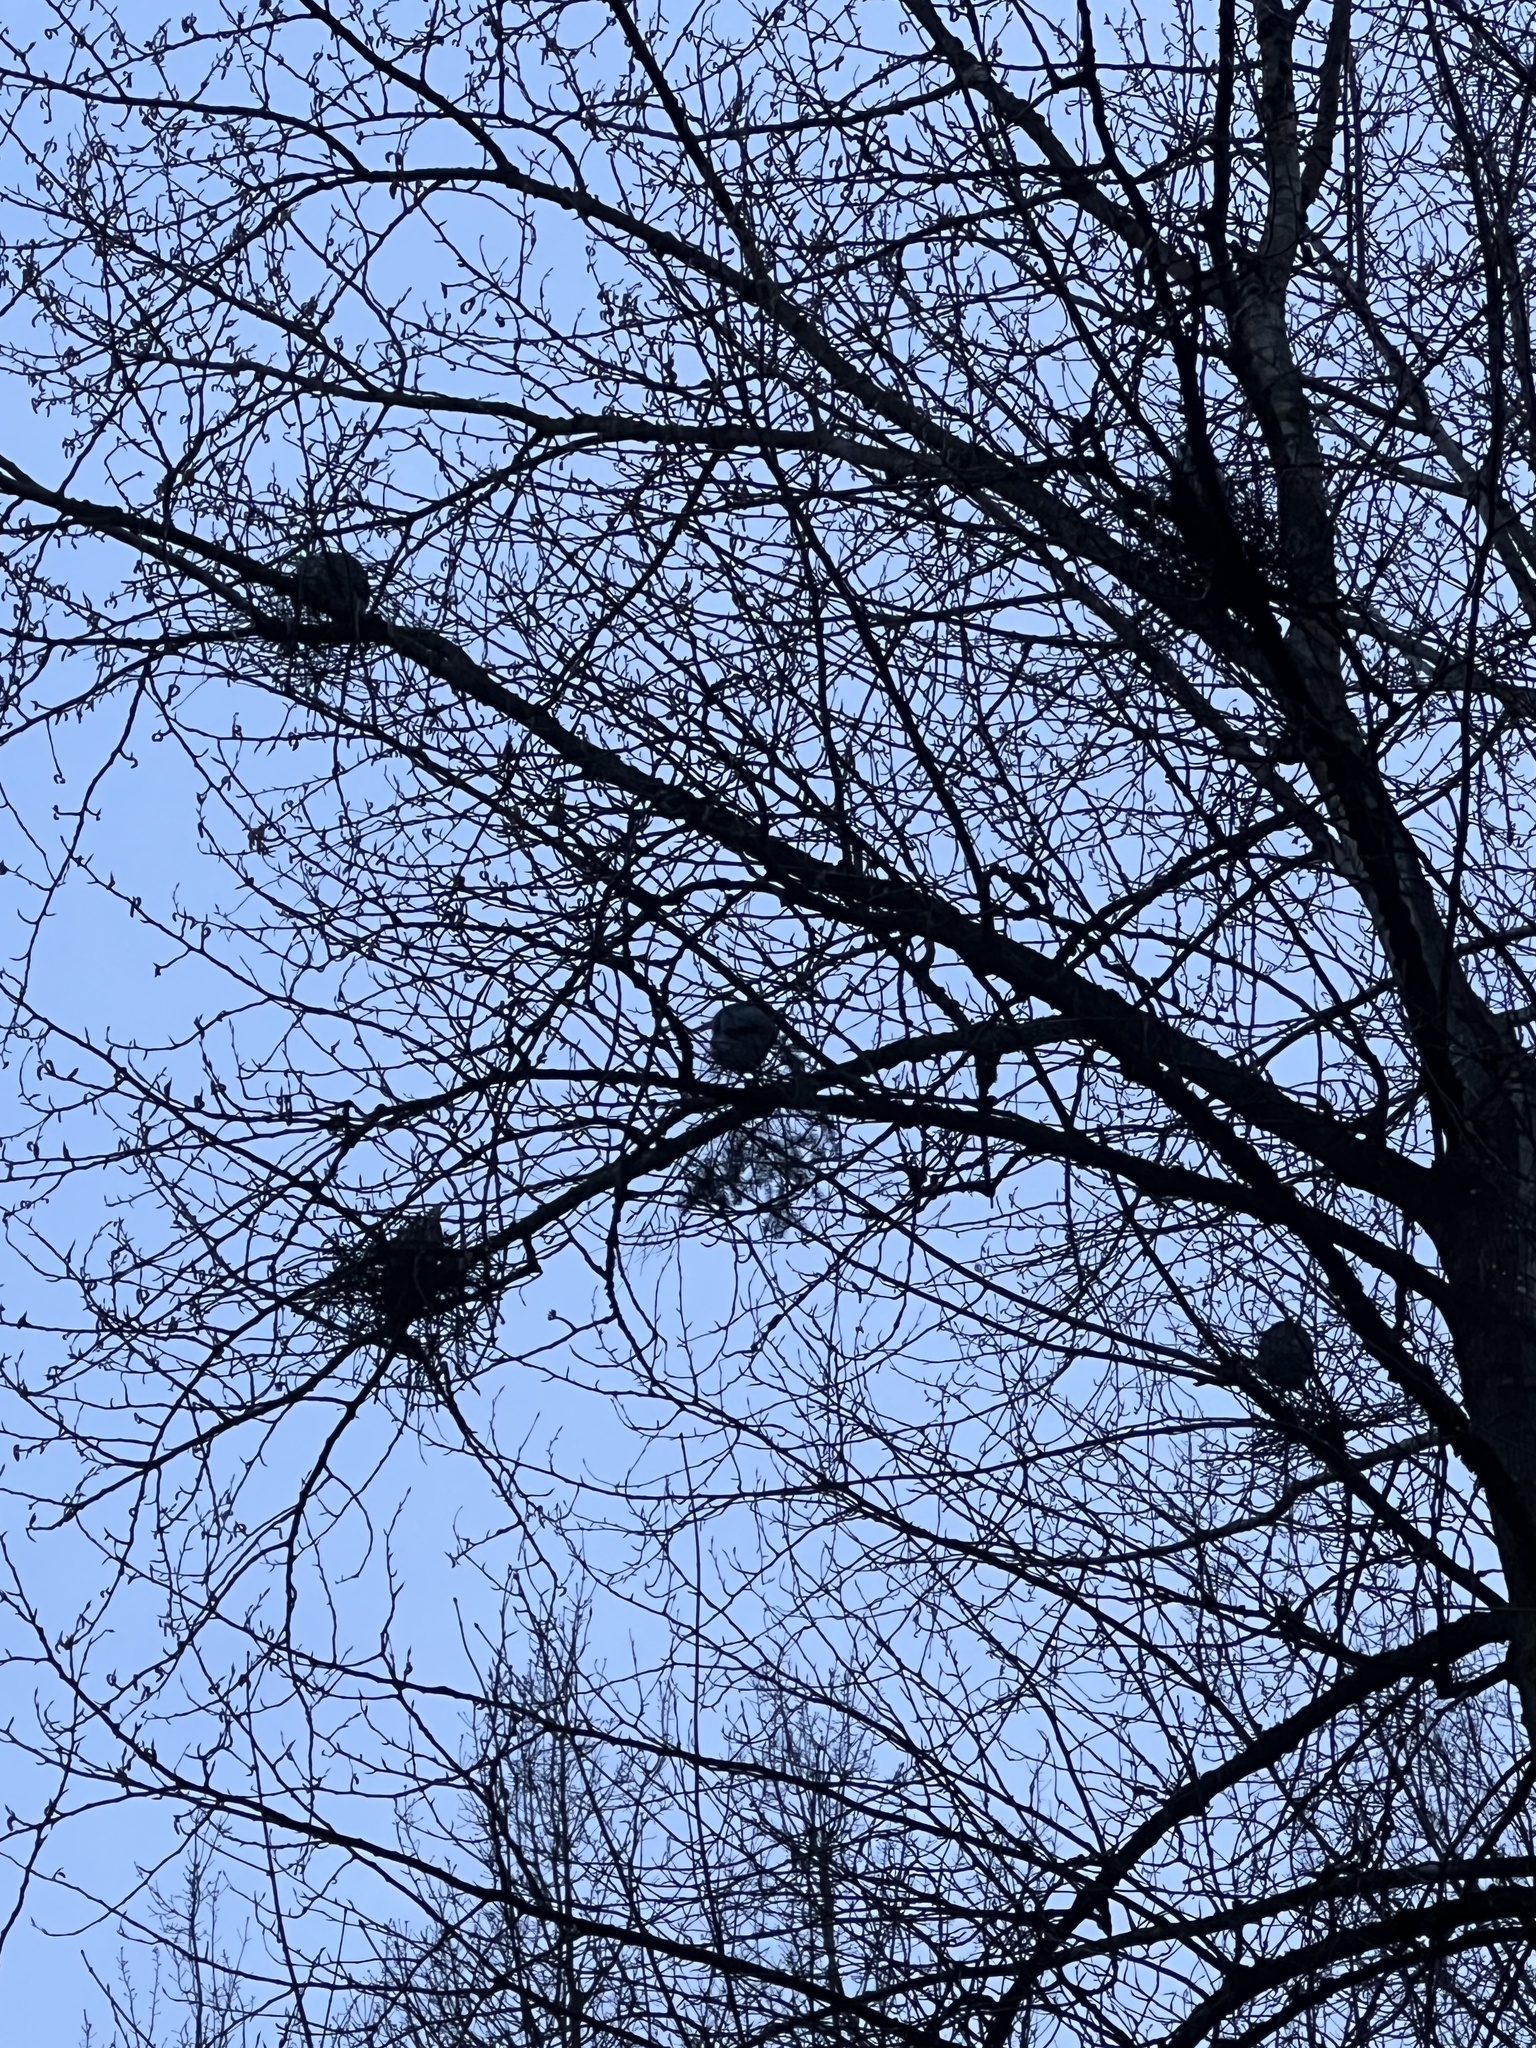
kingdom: Animalia
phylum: Chordata
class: Aves
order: Pelecaniformes
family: Ardeidae
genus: Ardea
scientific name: Ardea herodias
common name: Great blue heron
